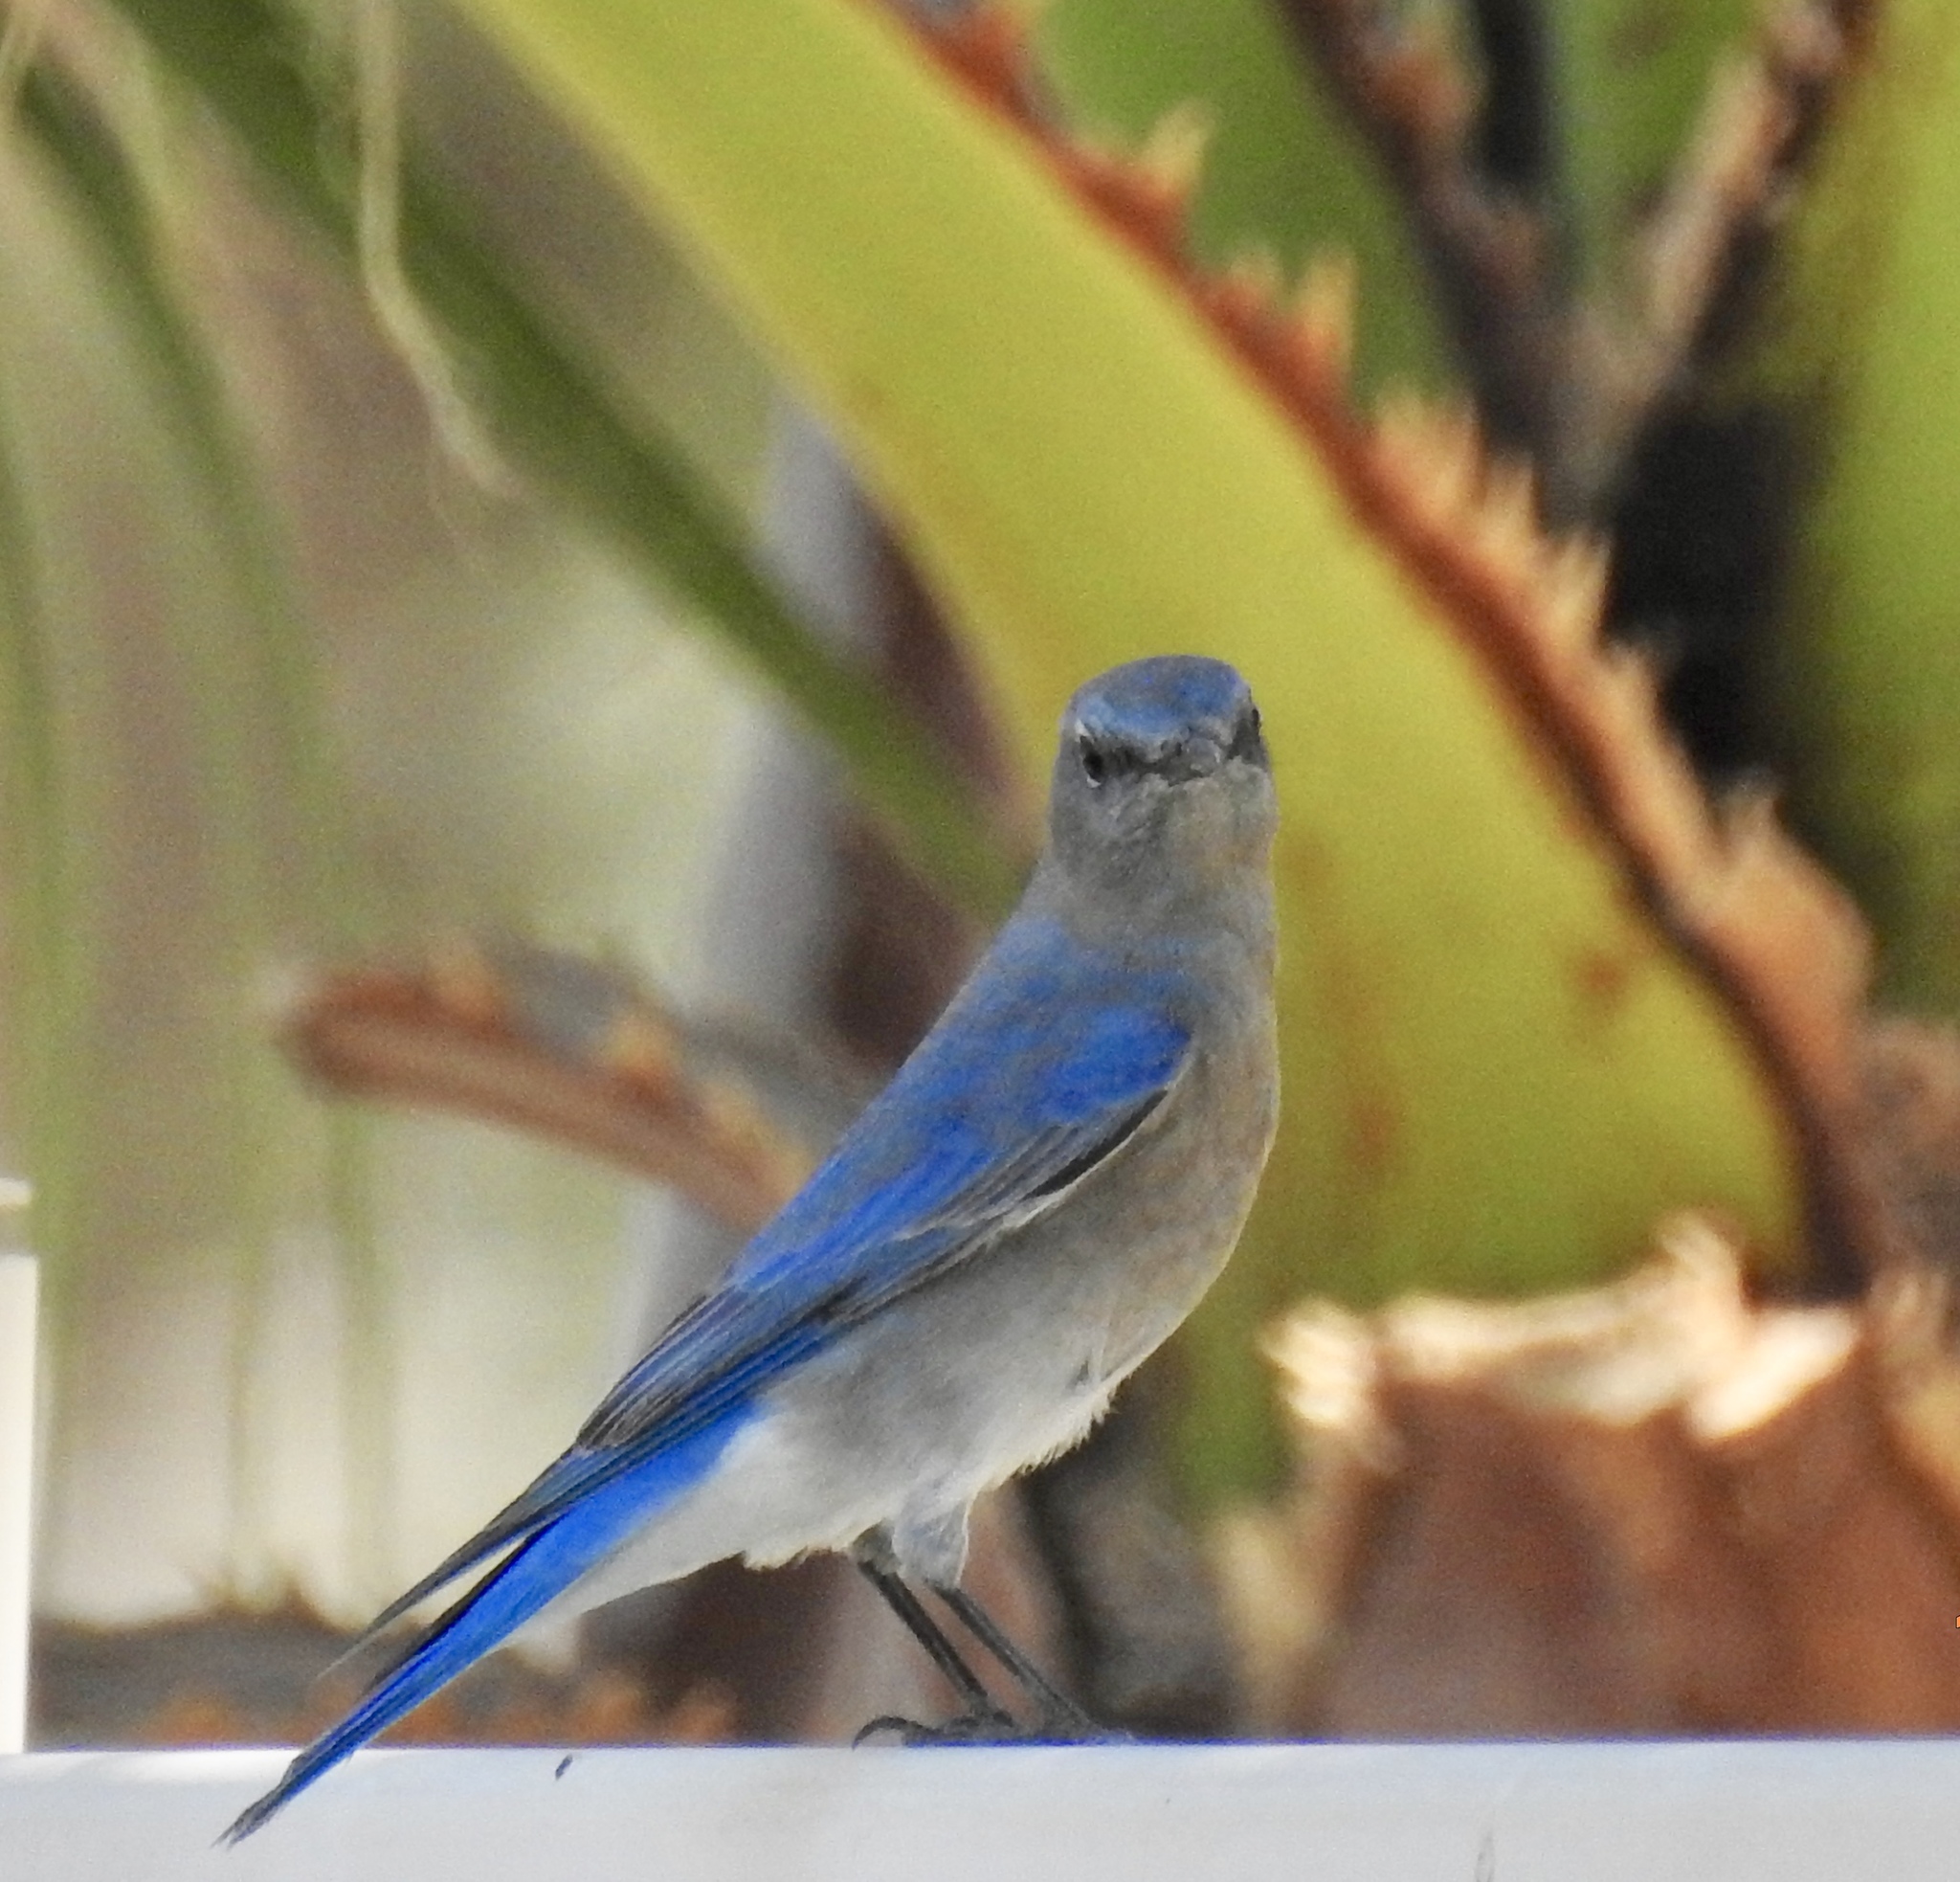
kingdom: Animalia
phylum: Chordata
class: Aves
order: Passeriformes
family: Turdidae
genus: Sialia
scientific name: Sialia currucoides
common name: Mountain bluebird
